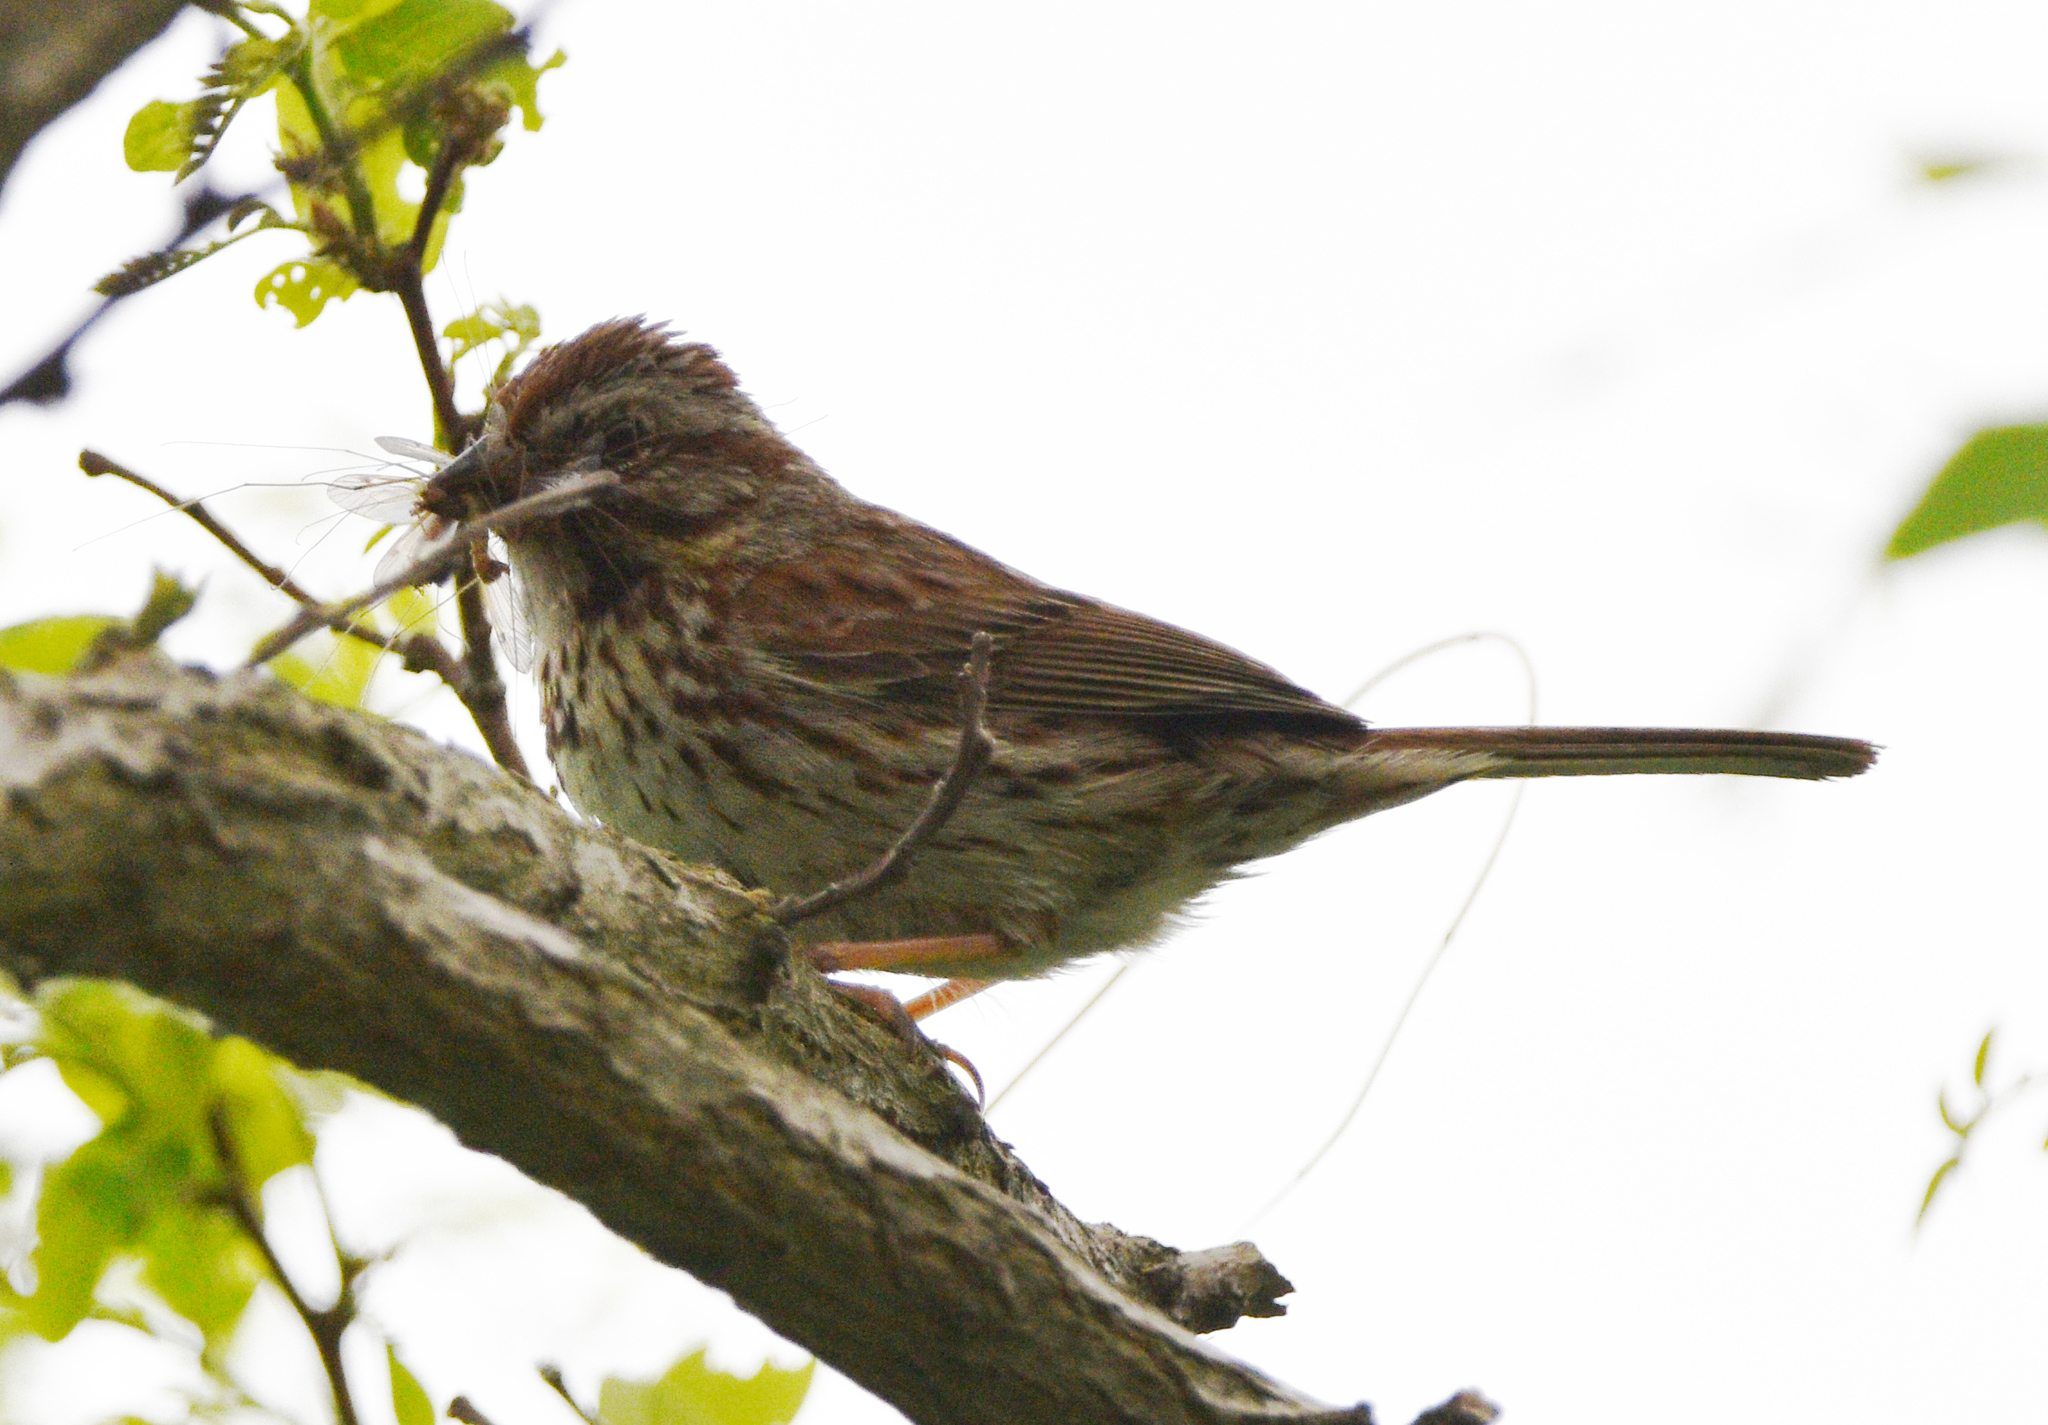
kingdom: Animalia
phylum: Chordata
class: Aves
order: Passeriformes
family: Passerellidae
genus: Melospiza
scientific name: Melospiza melodia
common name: Song sparrow
